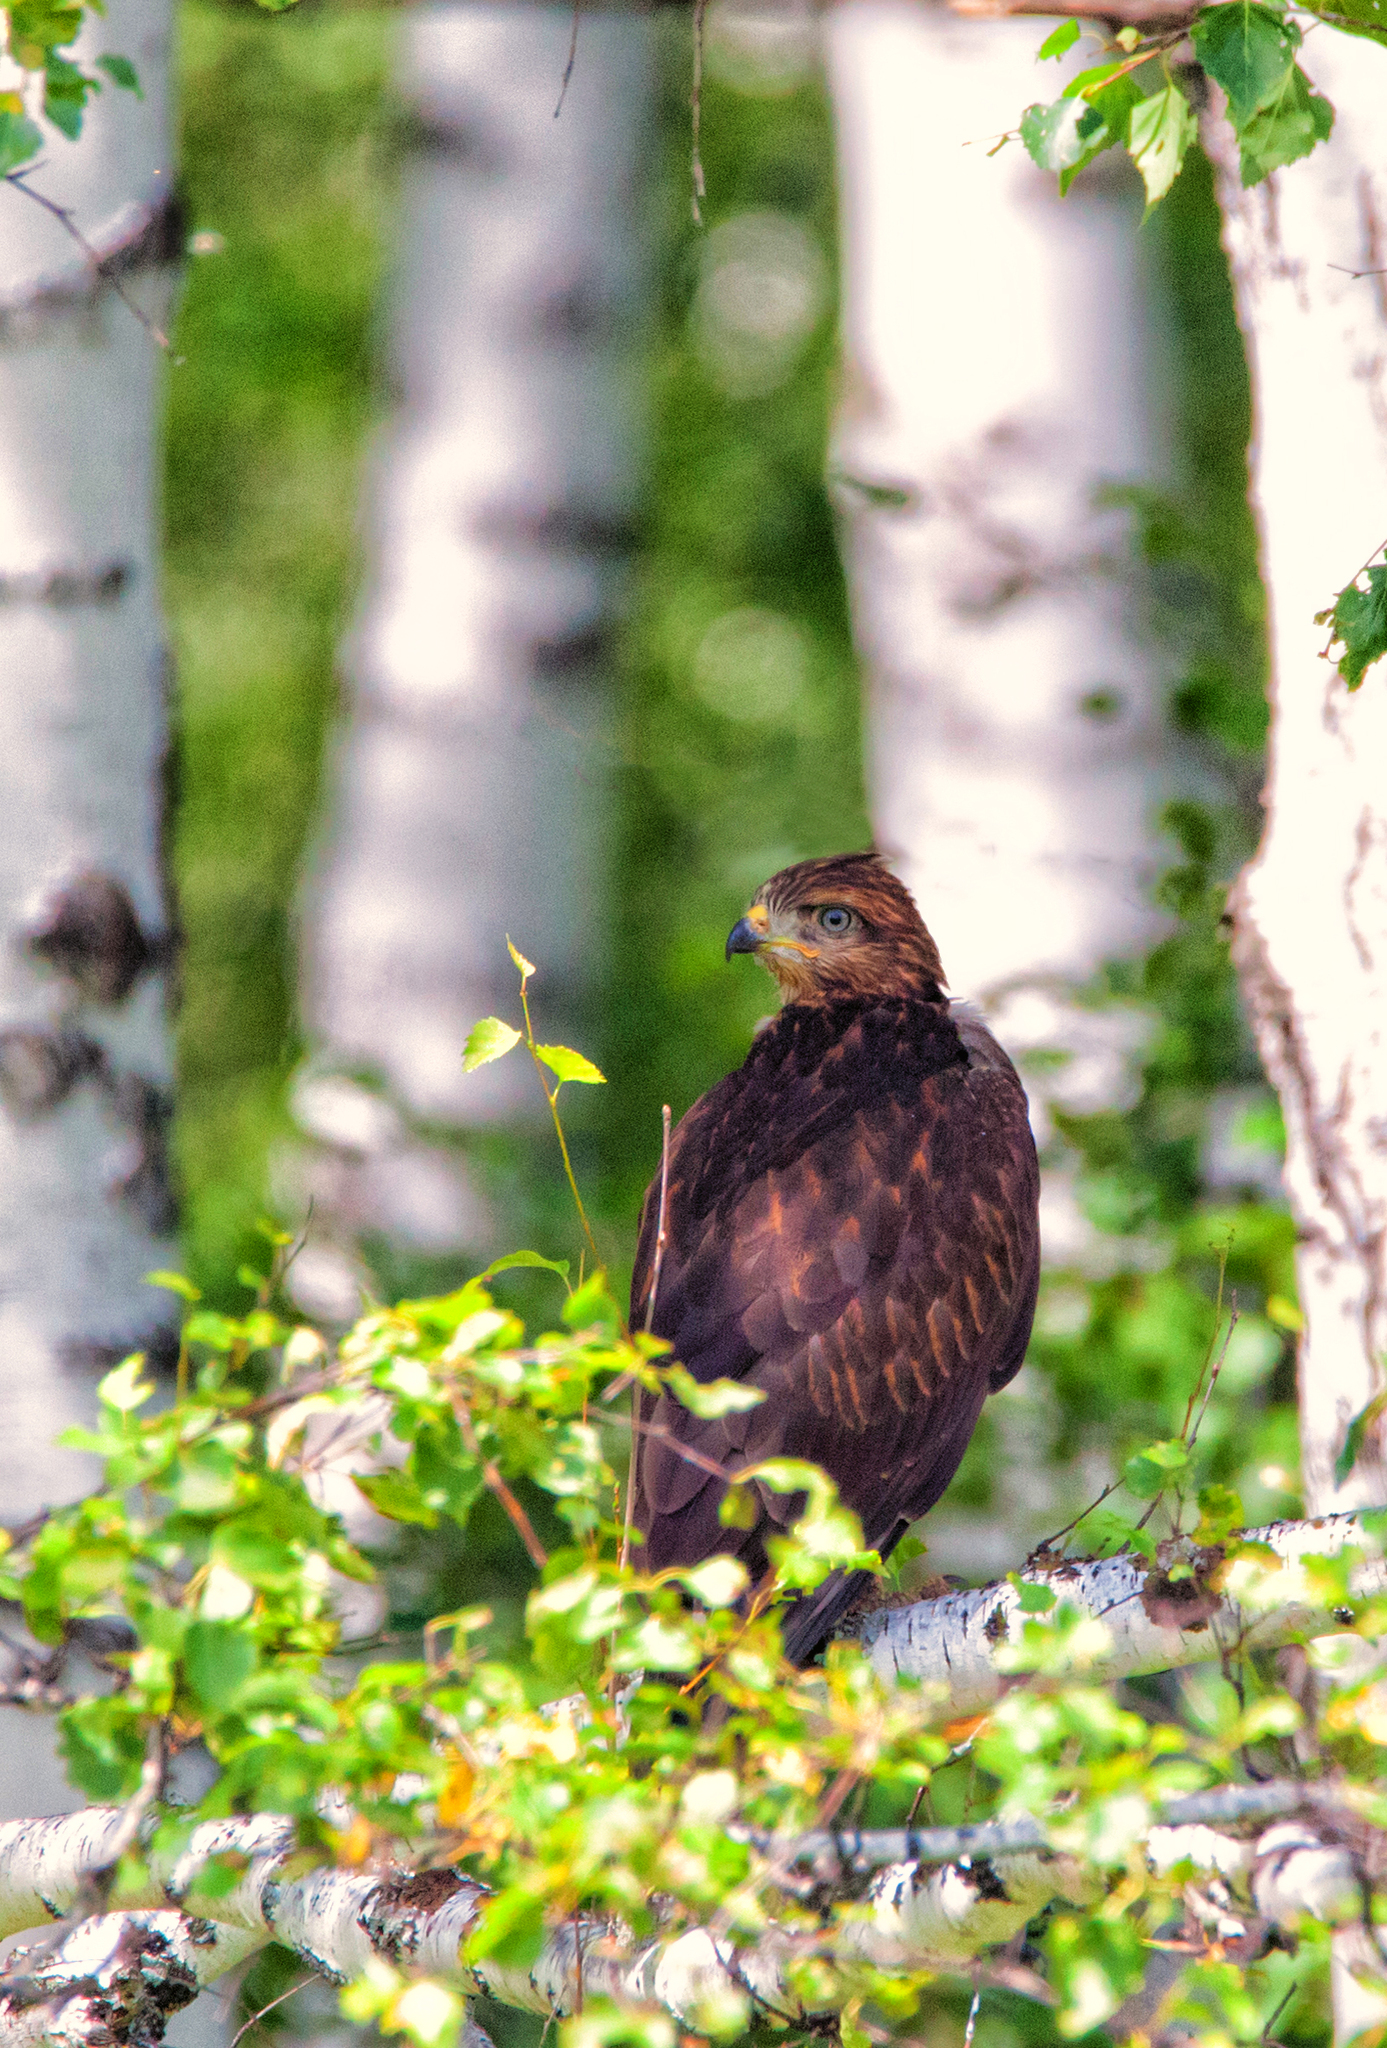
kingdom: Animalia
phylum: Chordata
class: Aves
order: Accipitriformes
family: Accipitridae
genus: Buteo
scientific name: Buteo buteo
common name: Common buzzard
